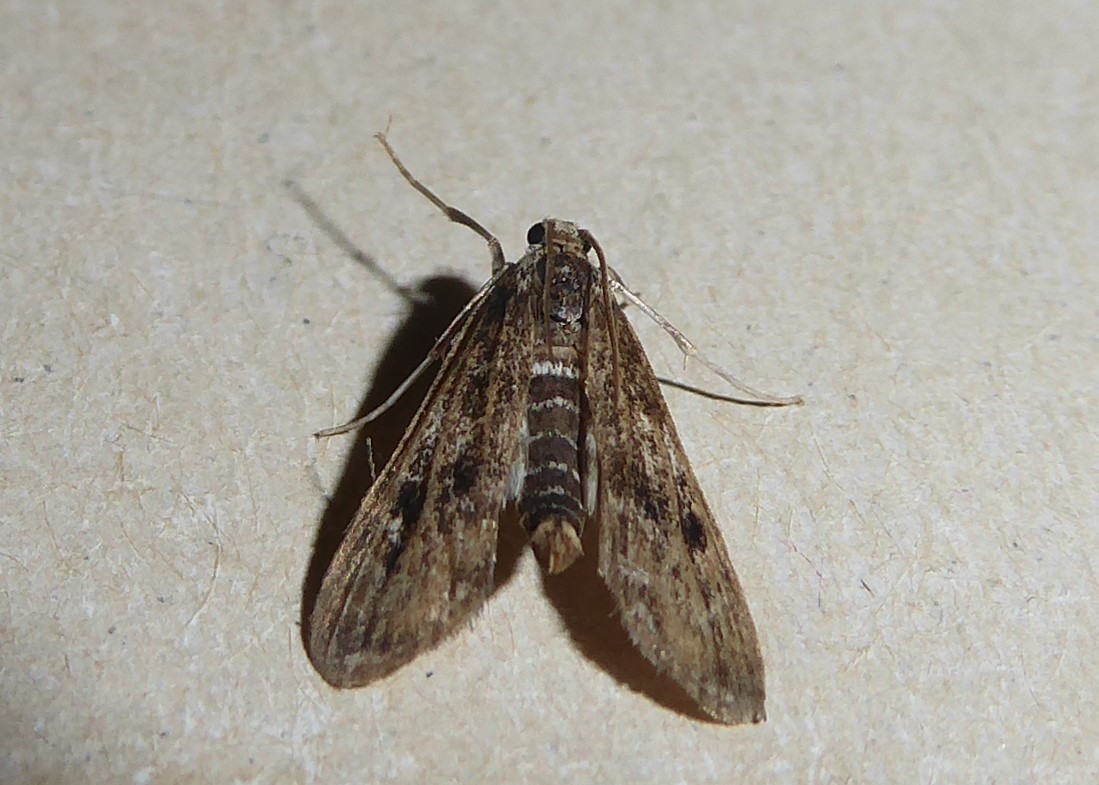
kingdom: Animalia
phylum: Arthropoda
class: Insecta
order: Lepidoptera
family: Crambidae
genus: Hygraula
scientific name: Hygraula nitens
